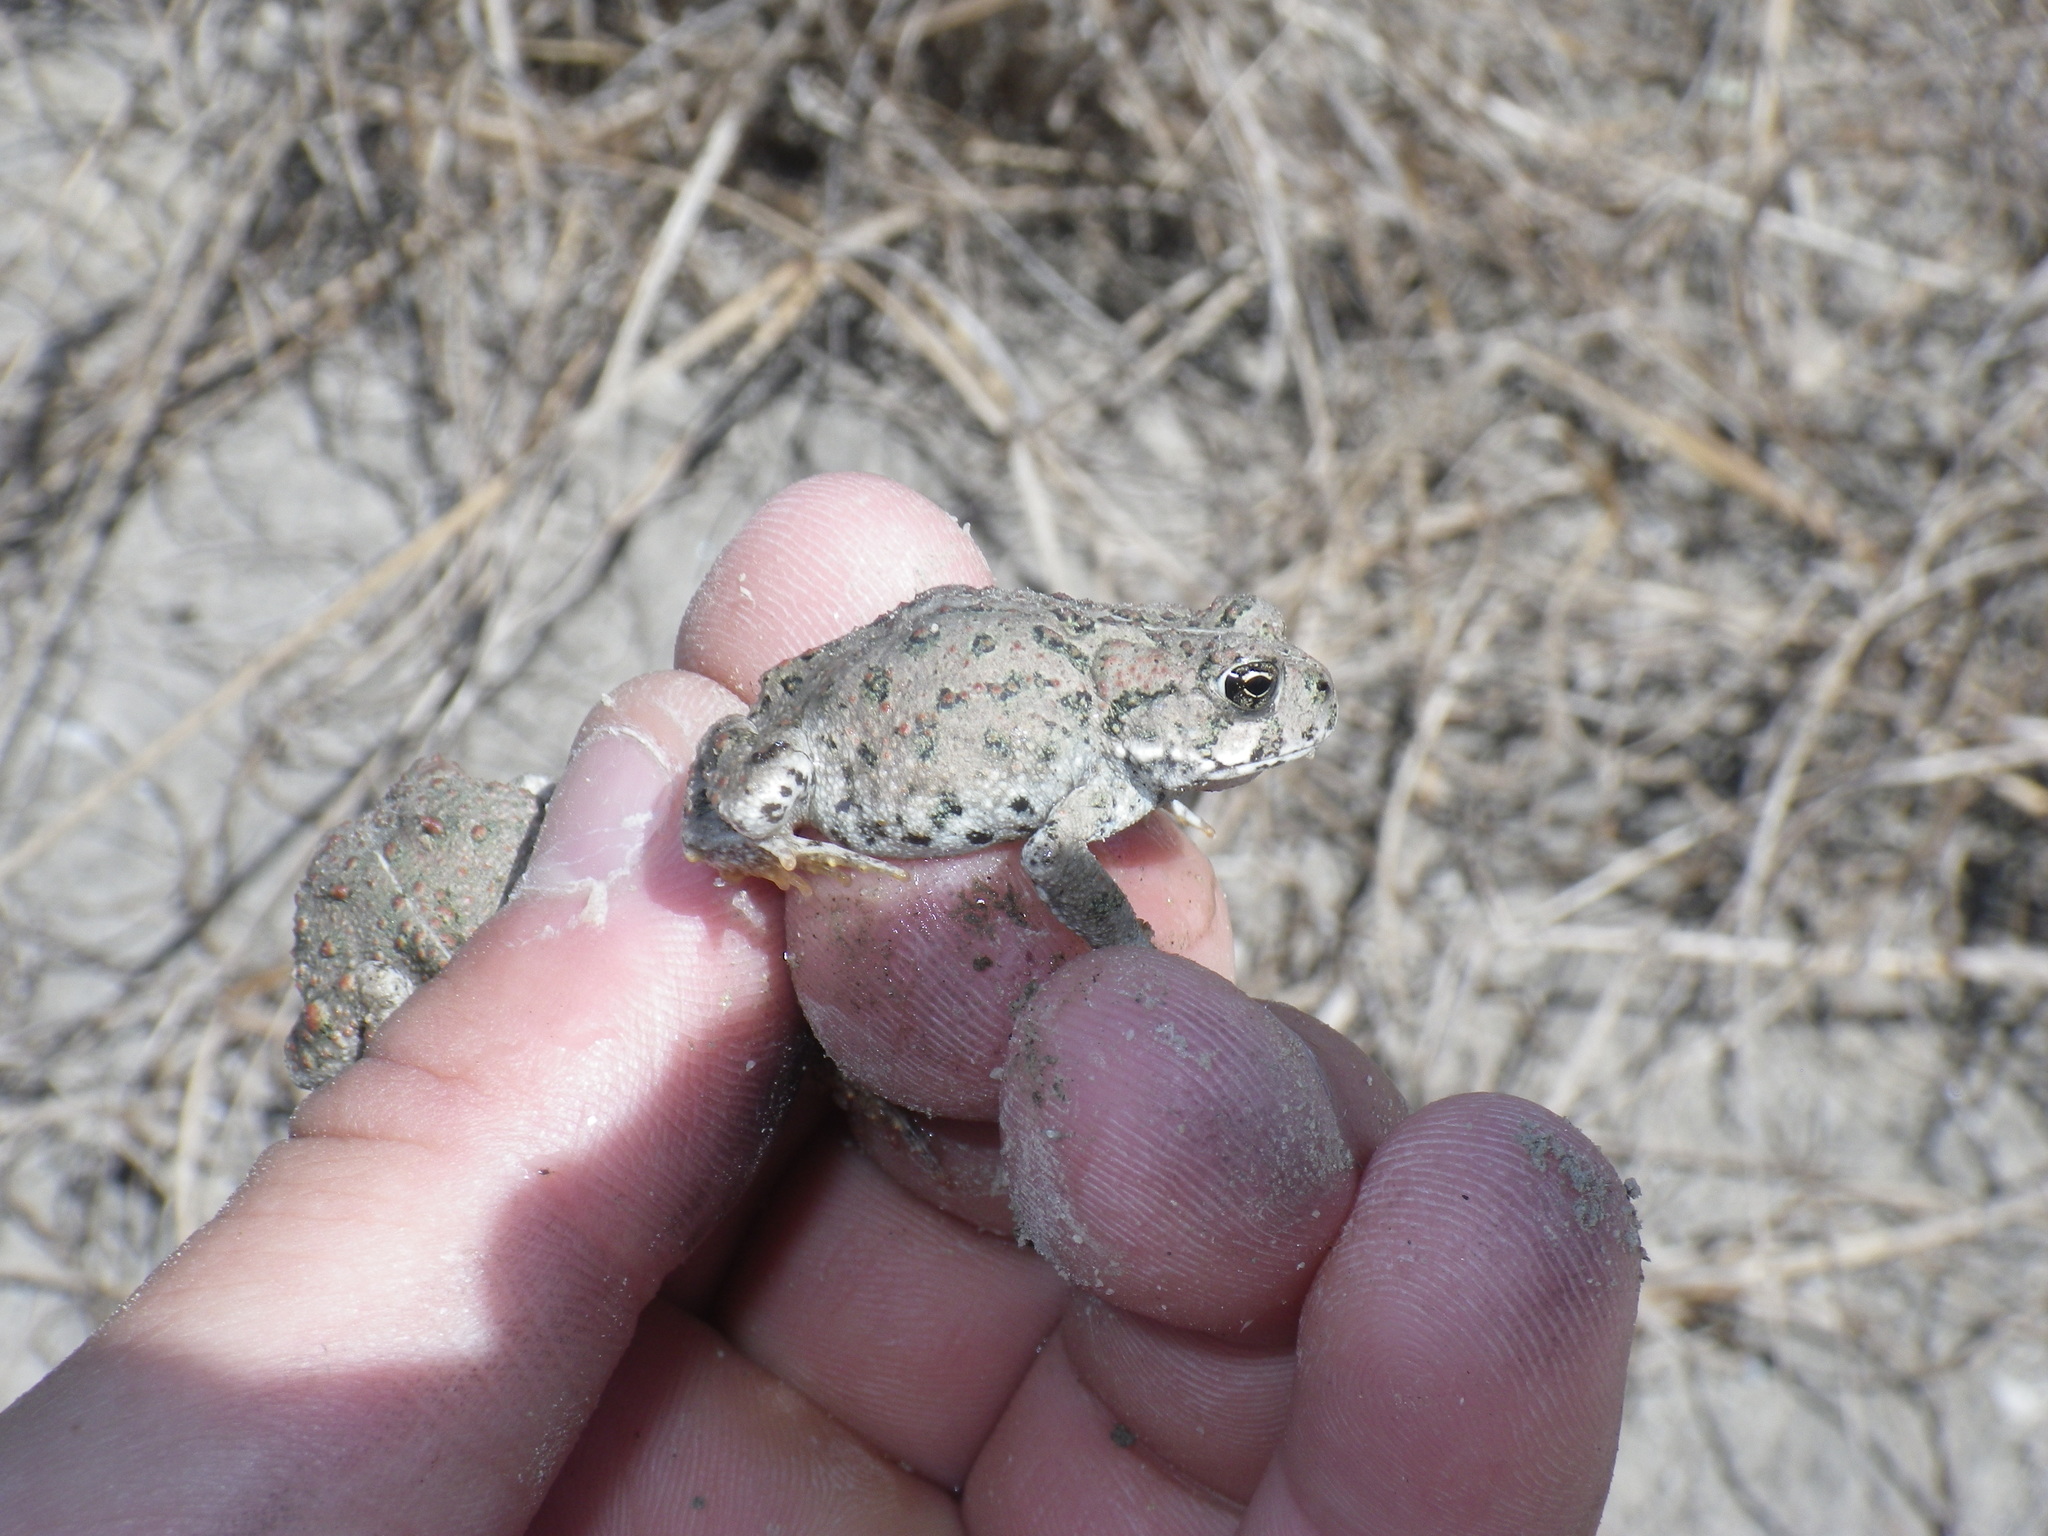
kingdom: Animalia
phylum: Chordata
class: Amphibia
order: Anura
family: Bufonidae
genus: Anaxyrus
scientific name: Anaxyrus boreas
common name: Western toad
